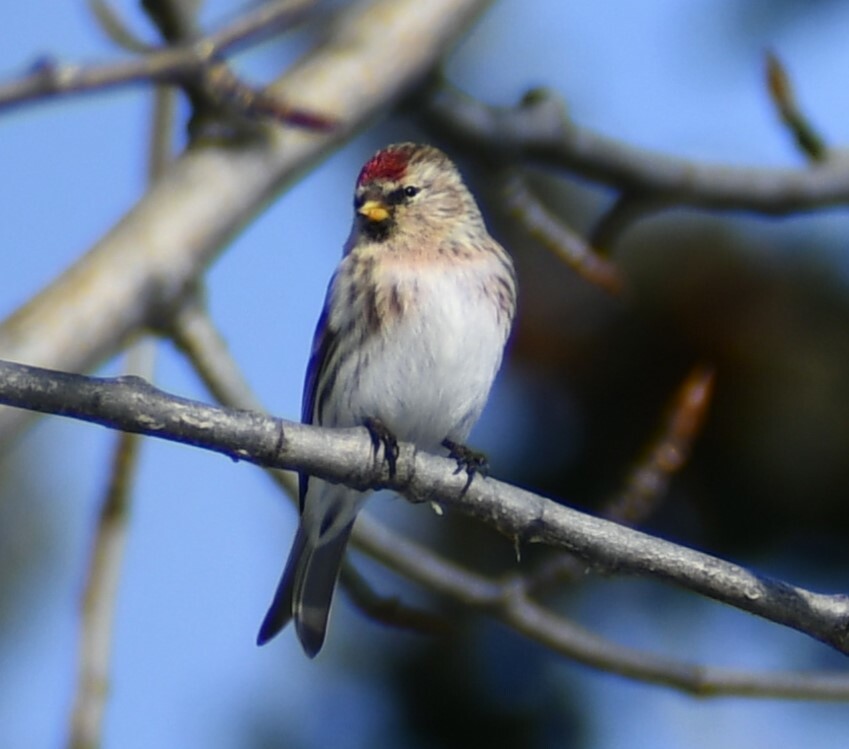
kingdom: Animalia
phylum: Chordata
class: Aves
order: Passeriformes
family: Fringillidae
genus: Acanthis
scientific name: Acanthis flammea
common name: Common redpoll
